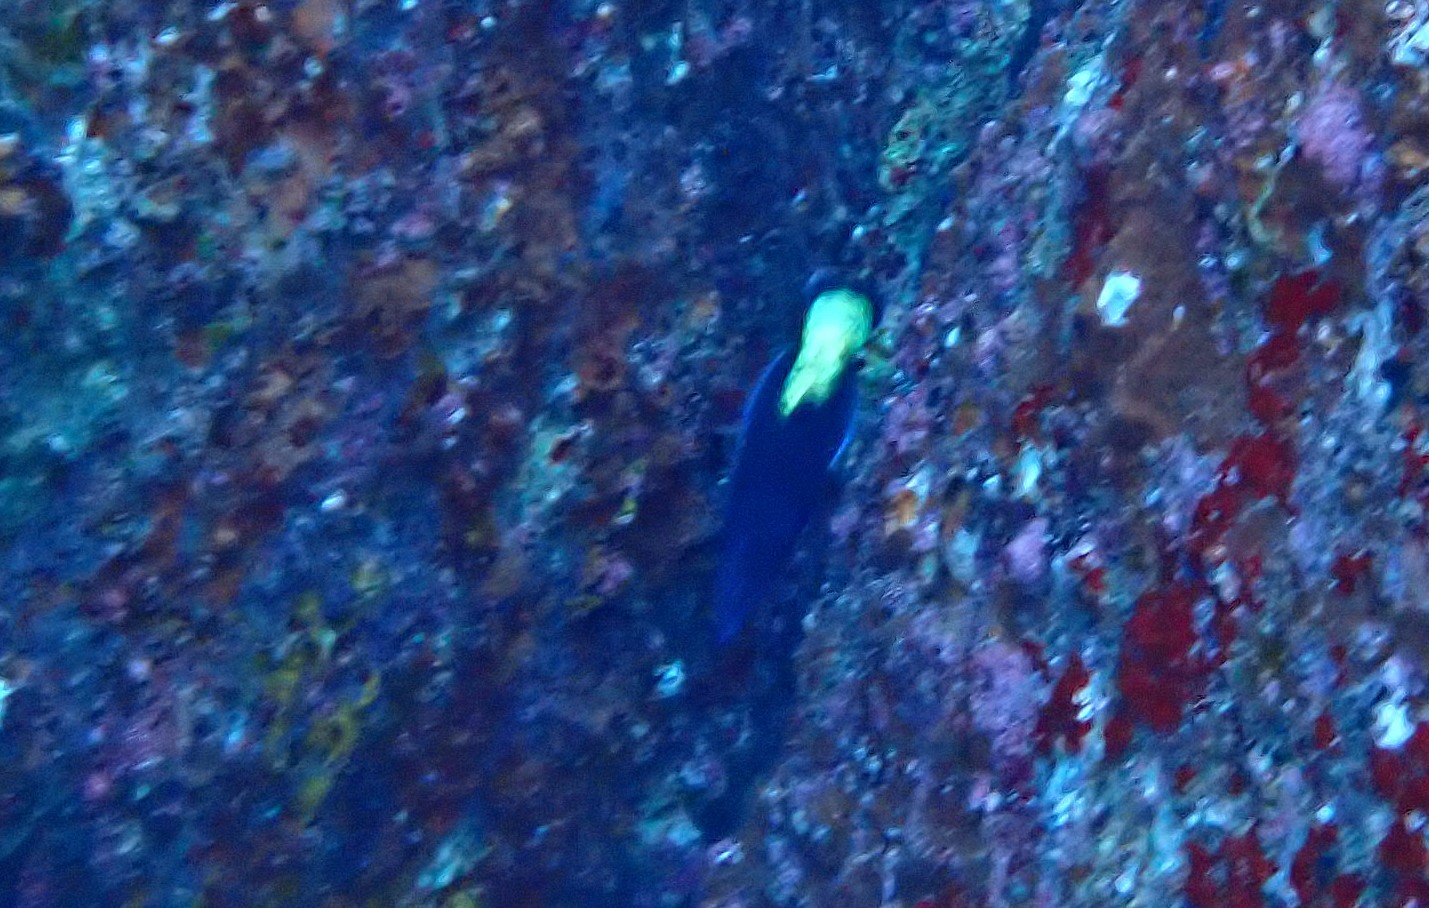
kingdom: Animalia
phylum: Chordata
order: Perciformes
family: Labridae
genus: Labroides
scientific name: Labroides bicolor
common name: Bicolor cleaner wrasse
